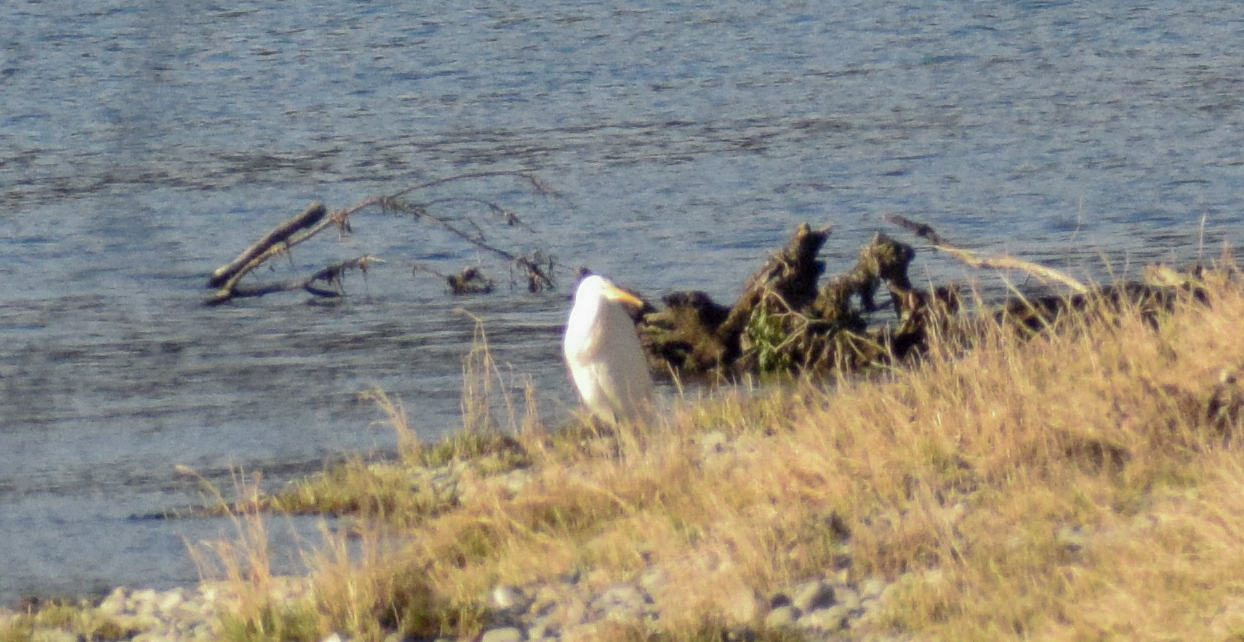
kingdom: Animalia
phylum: Chordata
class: Aves
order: Pelecaniformes
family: Ardeidae
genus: Ardea
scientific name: Ardea alba
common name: Great egret
